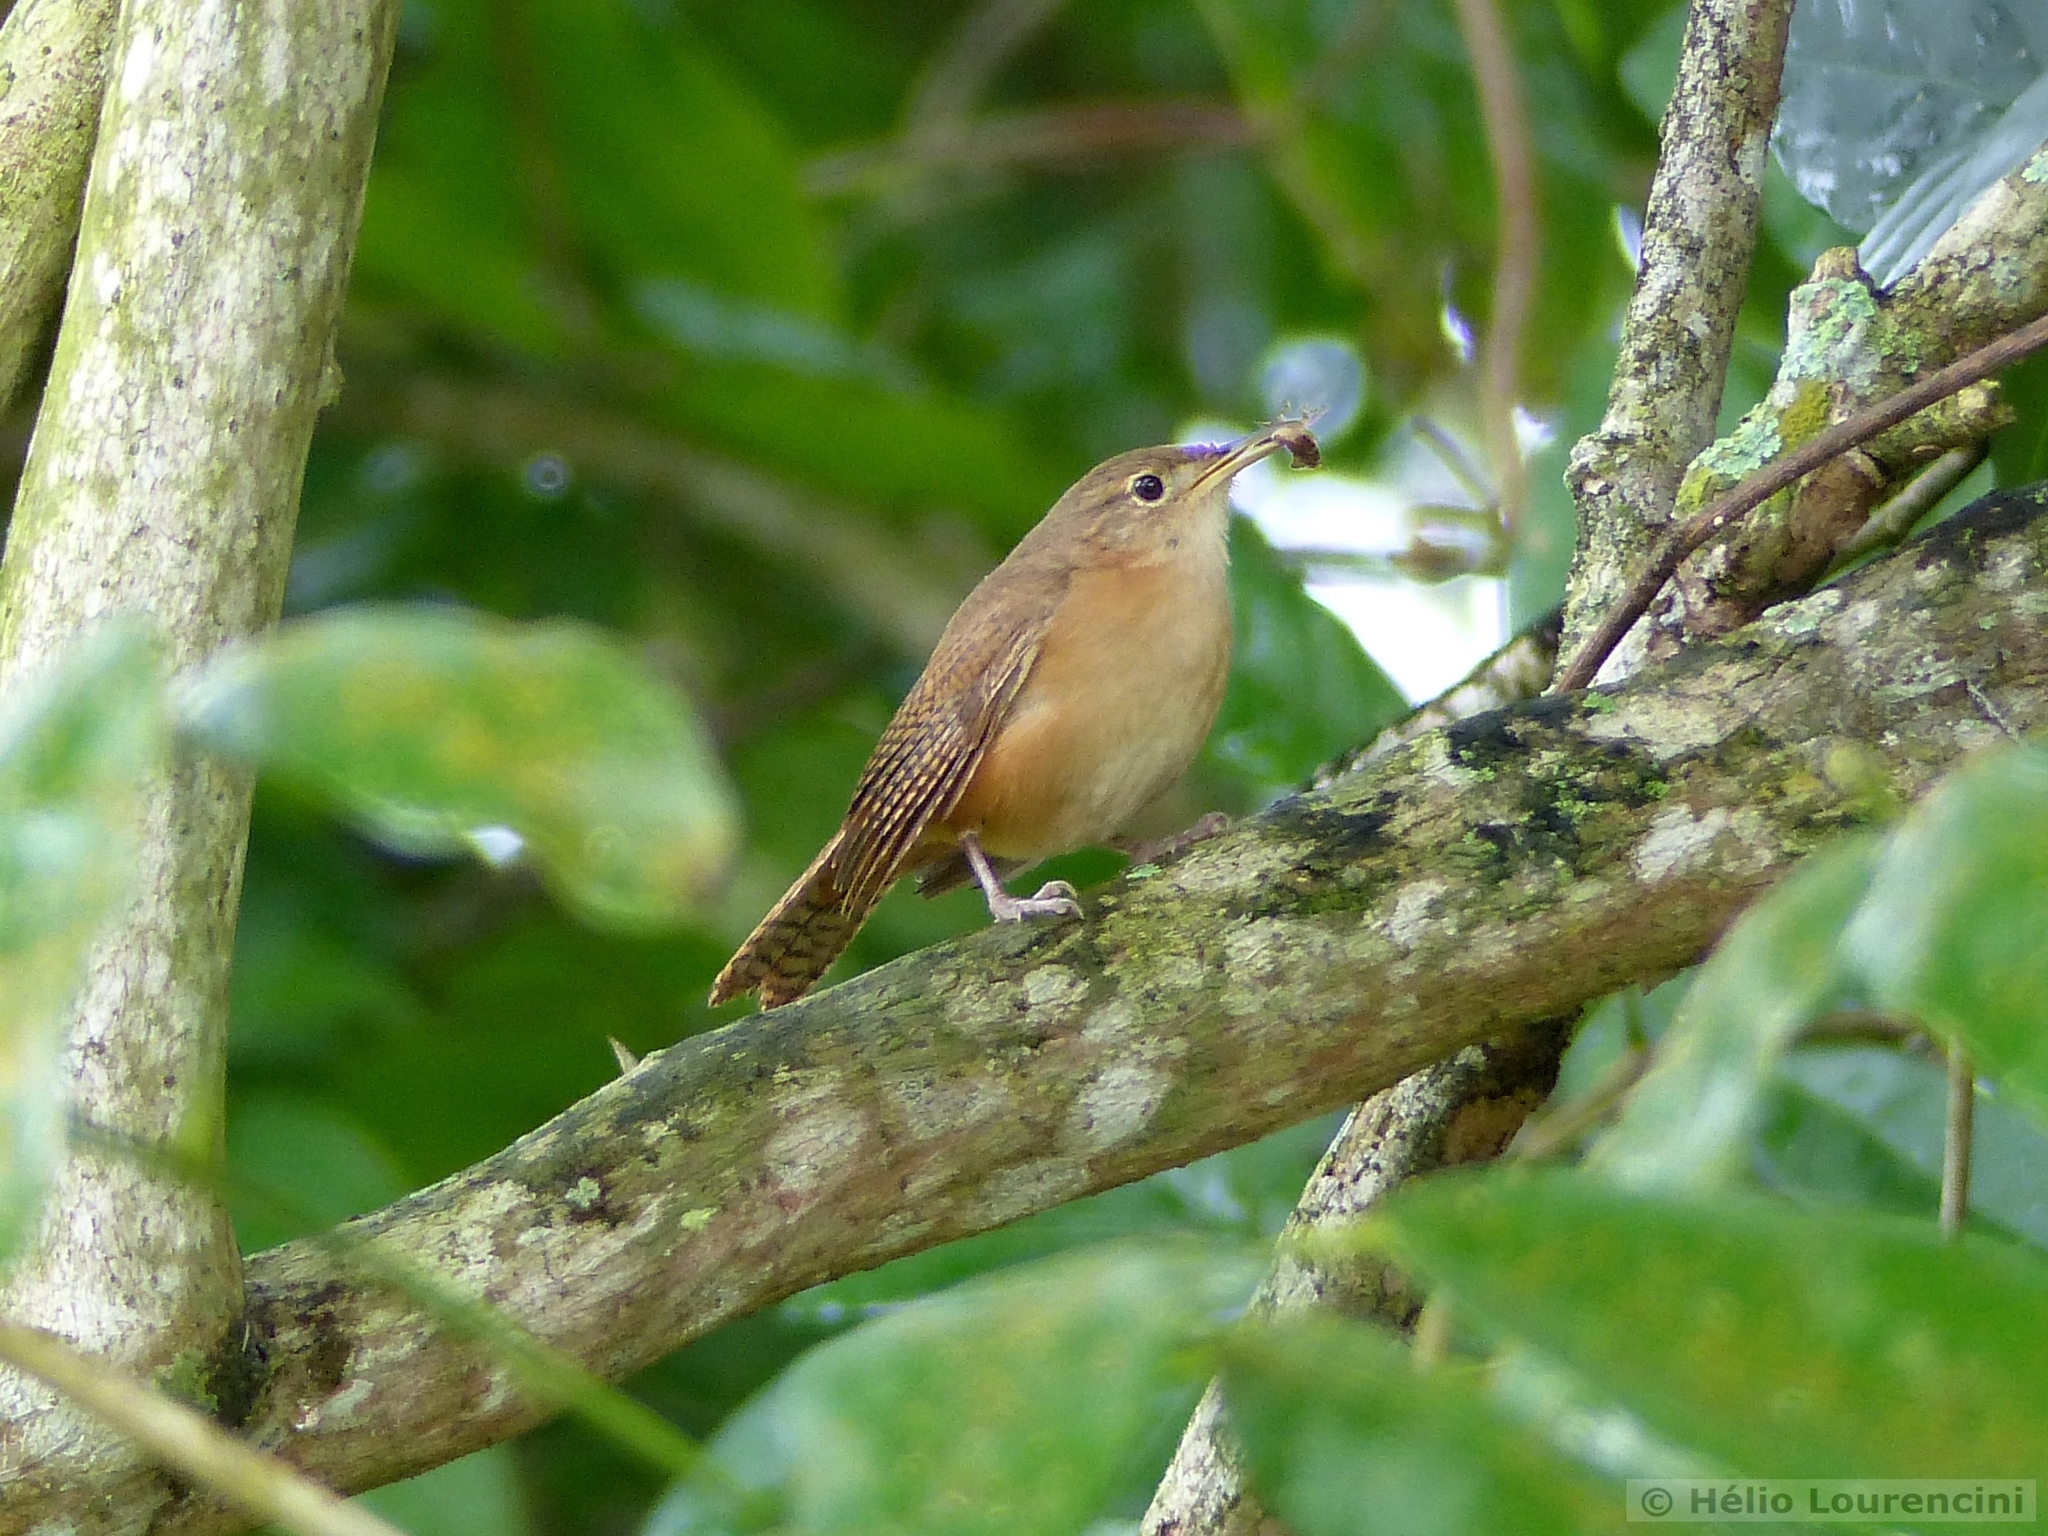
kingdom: Animalia
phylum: Chordata
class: Aves
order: Passeriformes
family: Troglodytidae
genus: Troglodytes
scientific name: Troglodytes aedon
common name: House wren
